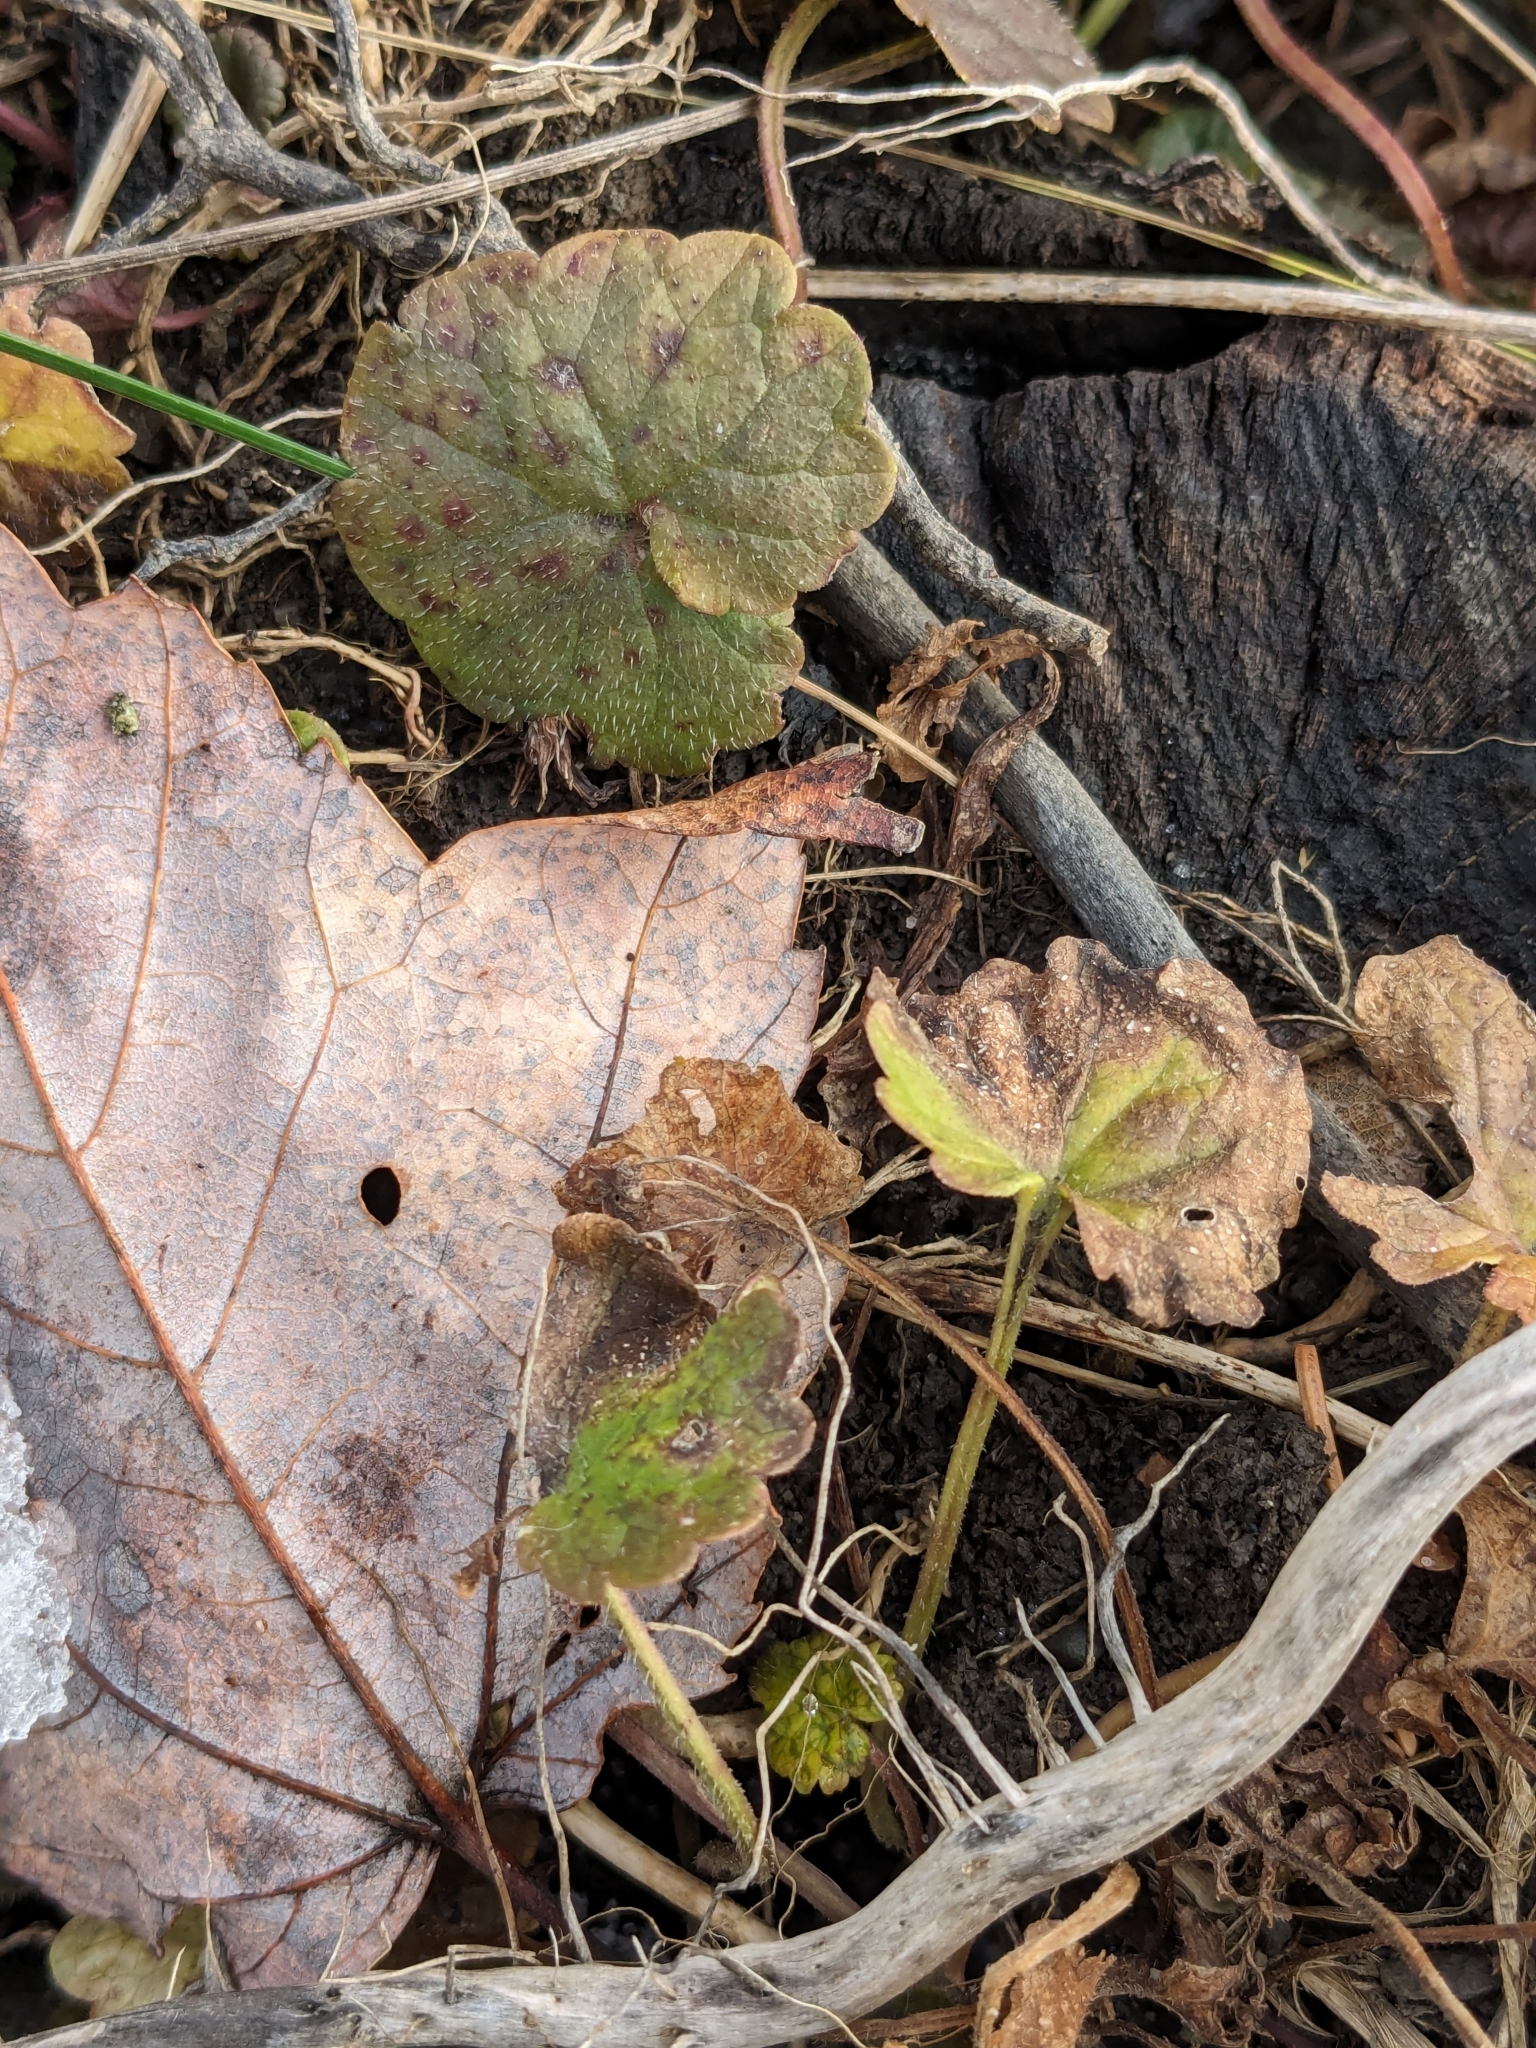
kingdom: Plantae
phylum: Tracheophyta
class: Magnoliopsida
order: Lamiales
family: Lamiaceae
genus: Glechoma
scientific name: Glechoma hederacea
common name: Ground ivy
